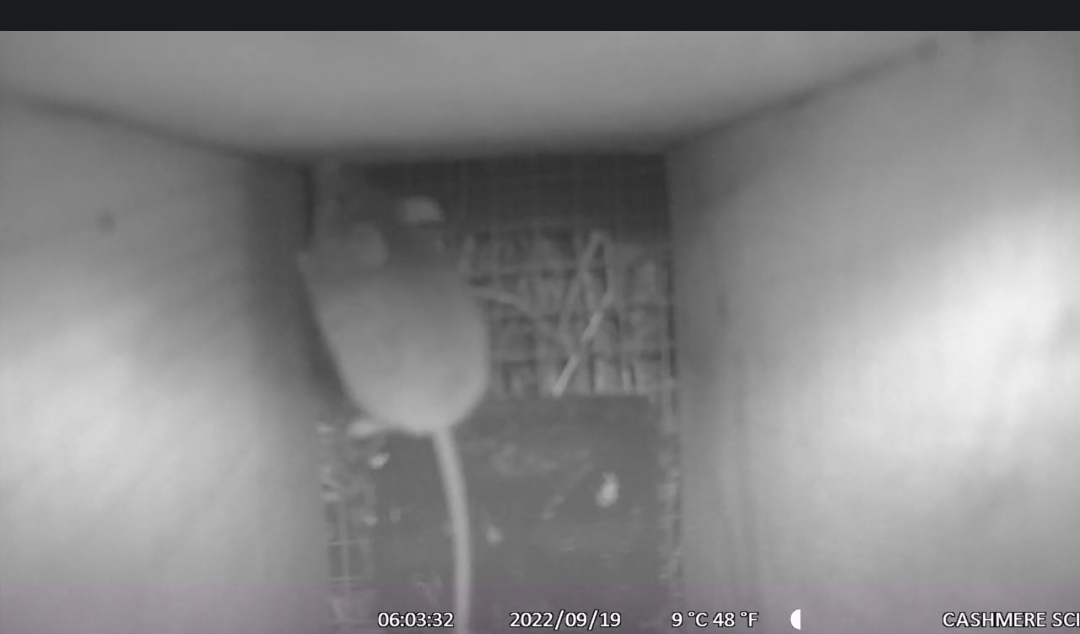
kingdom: Animalia
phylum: Chordata
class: Mammalia
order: Rodentia
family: Muridae
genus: Mus
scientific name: Mus musculus
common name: House mouse
